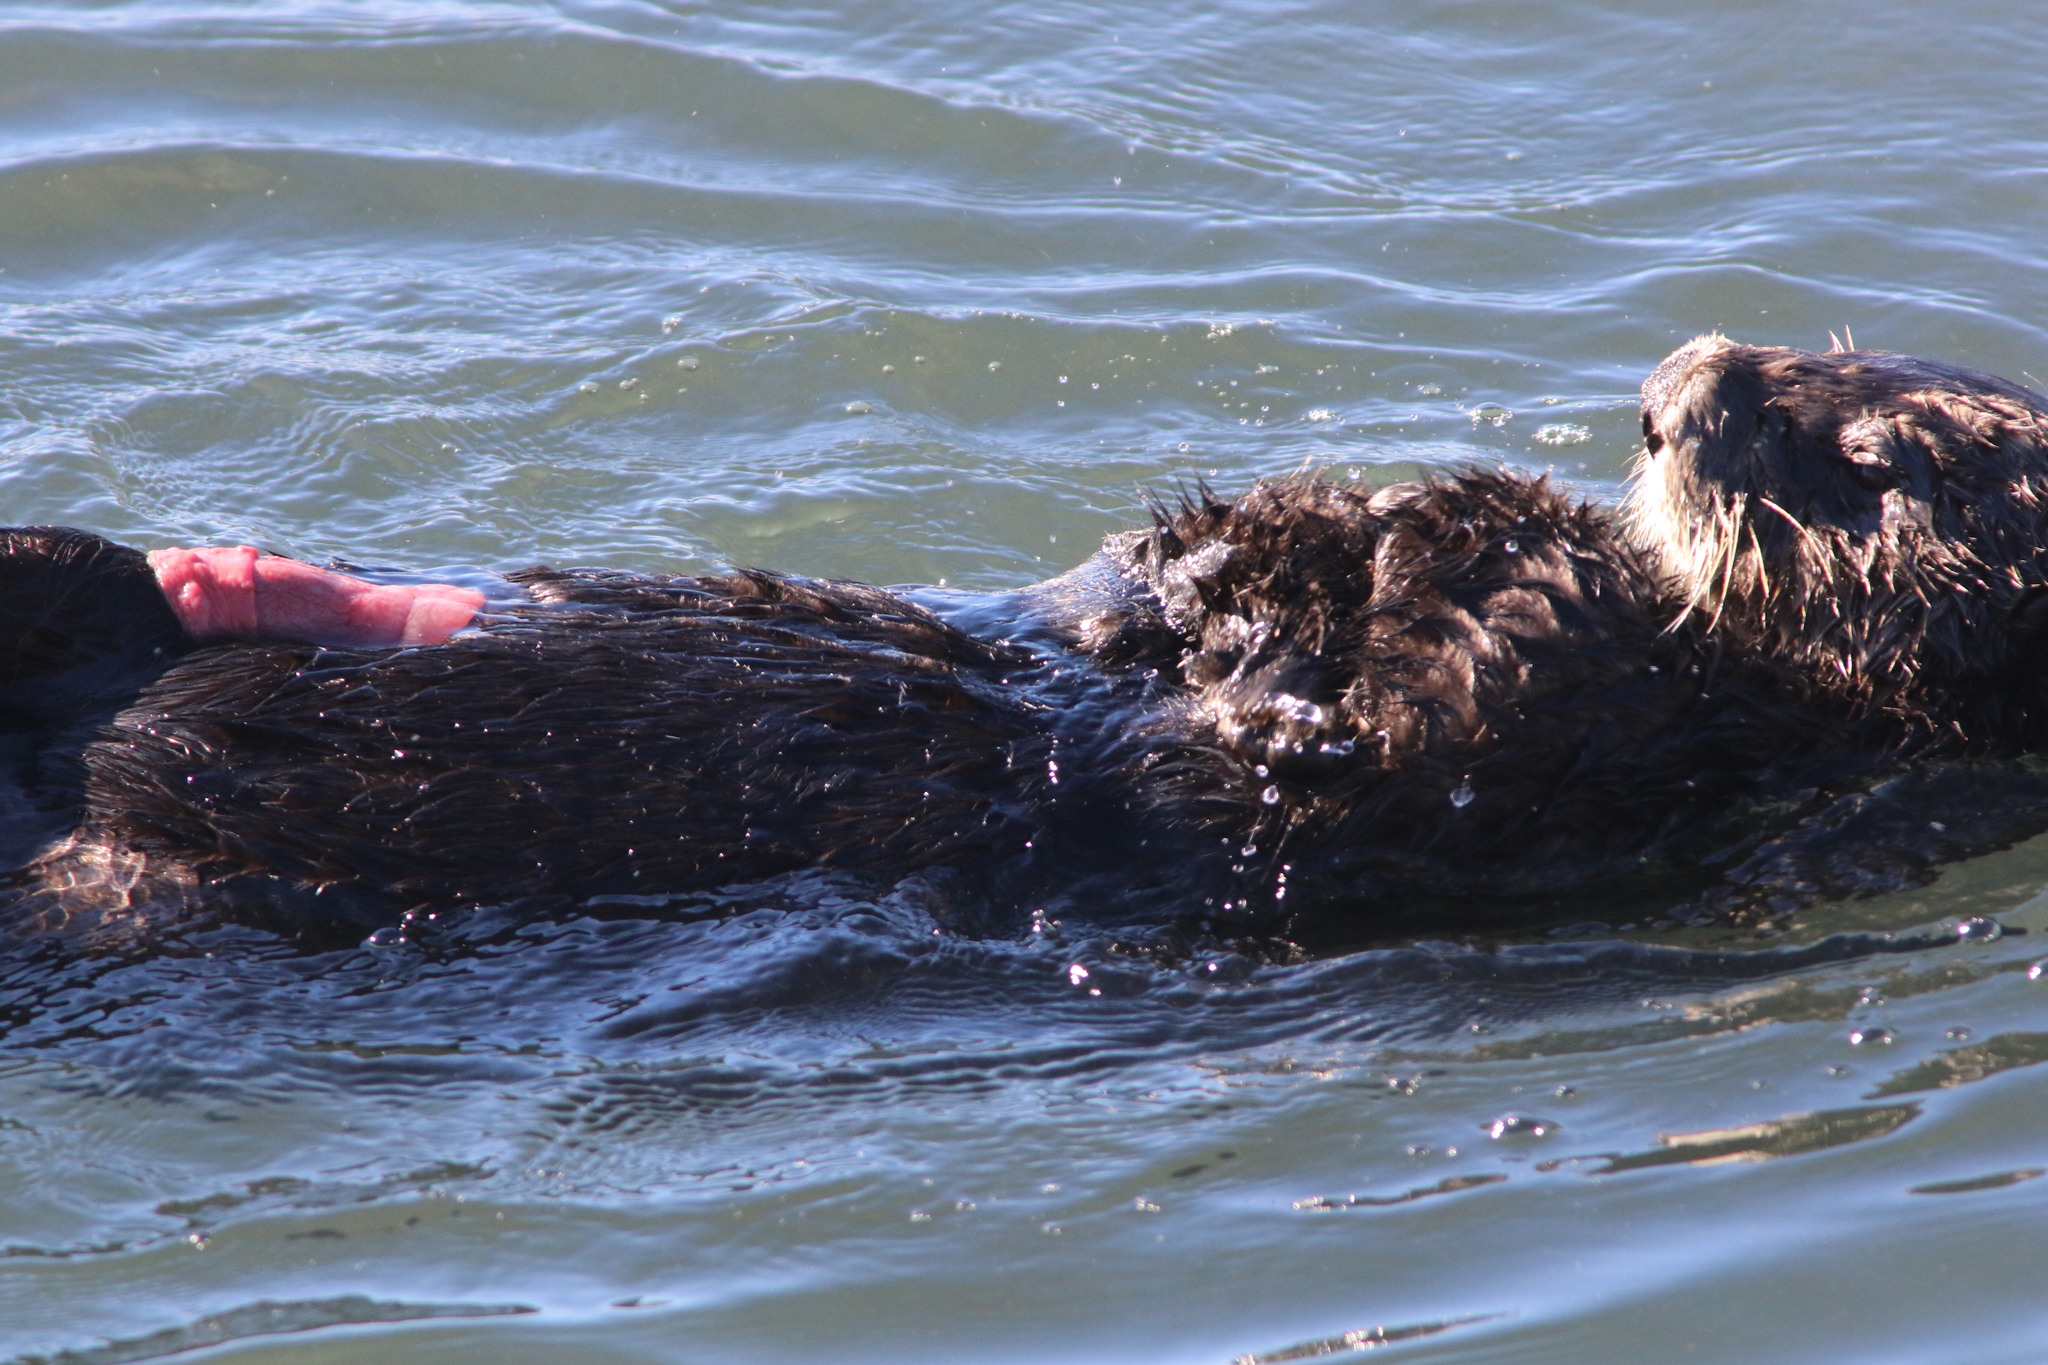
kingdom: Animalia
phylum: Chordata
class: Mammalia
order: Carnivora
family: Mustelidae
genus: Enhydra
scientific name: Enhydra lutris
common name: Sea otter
